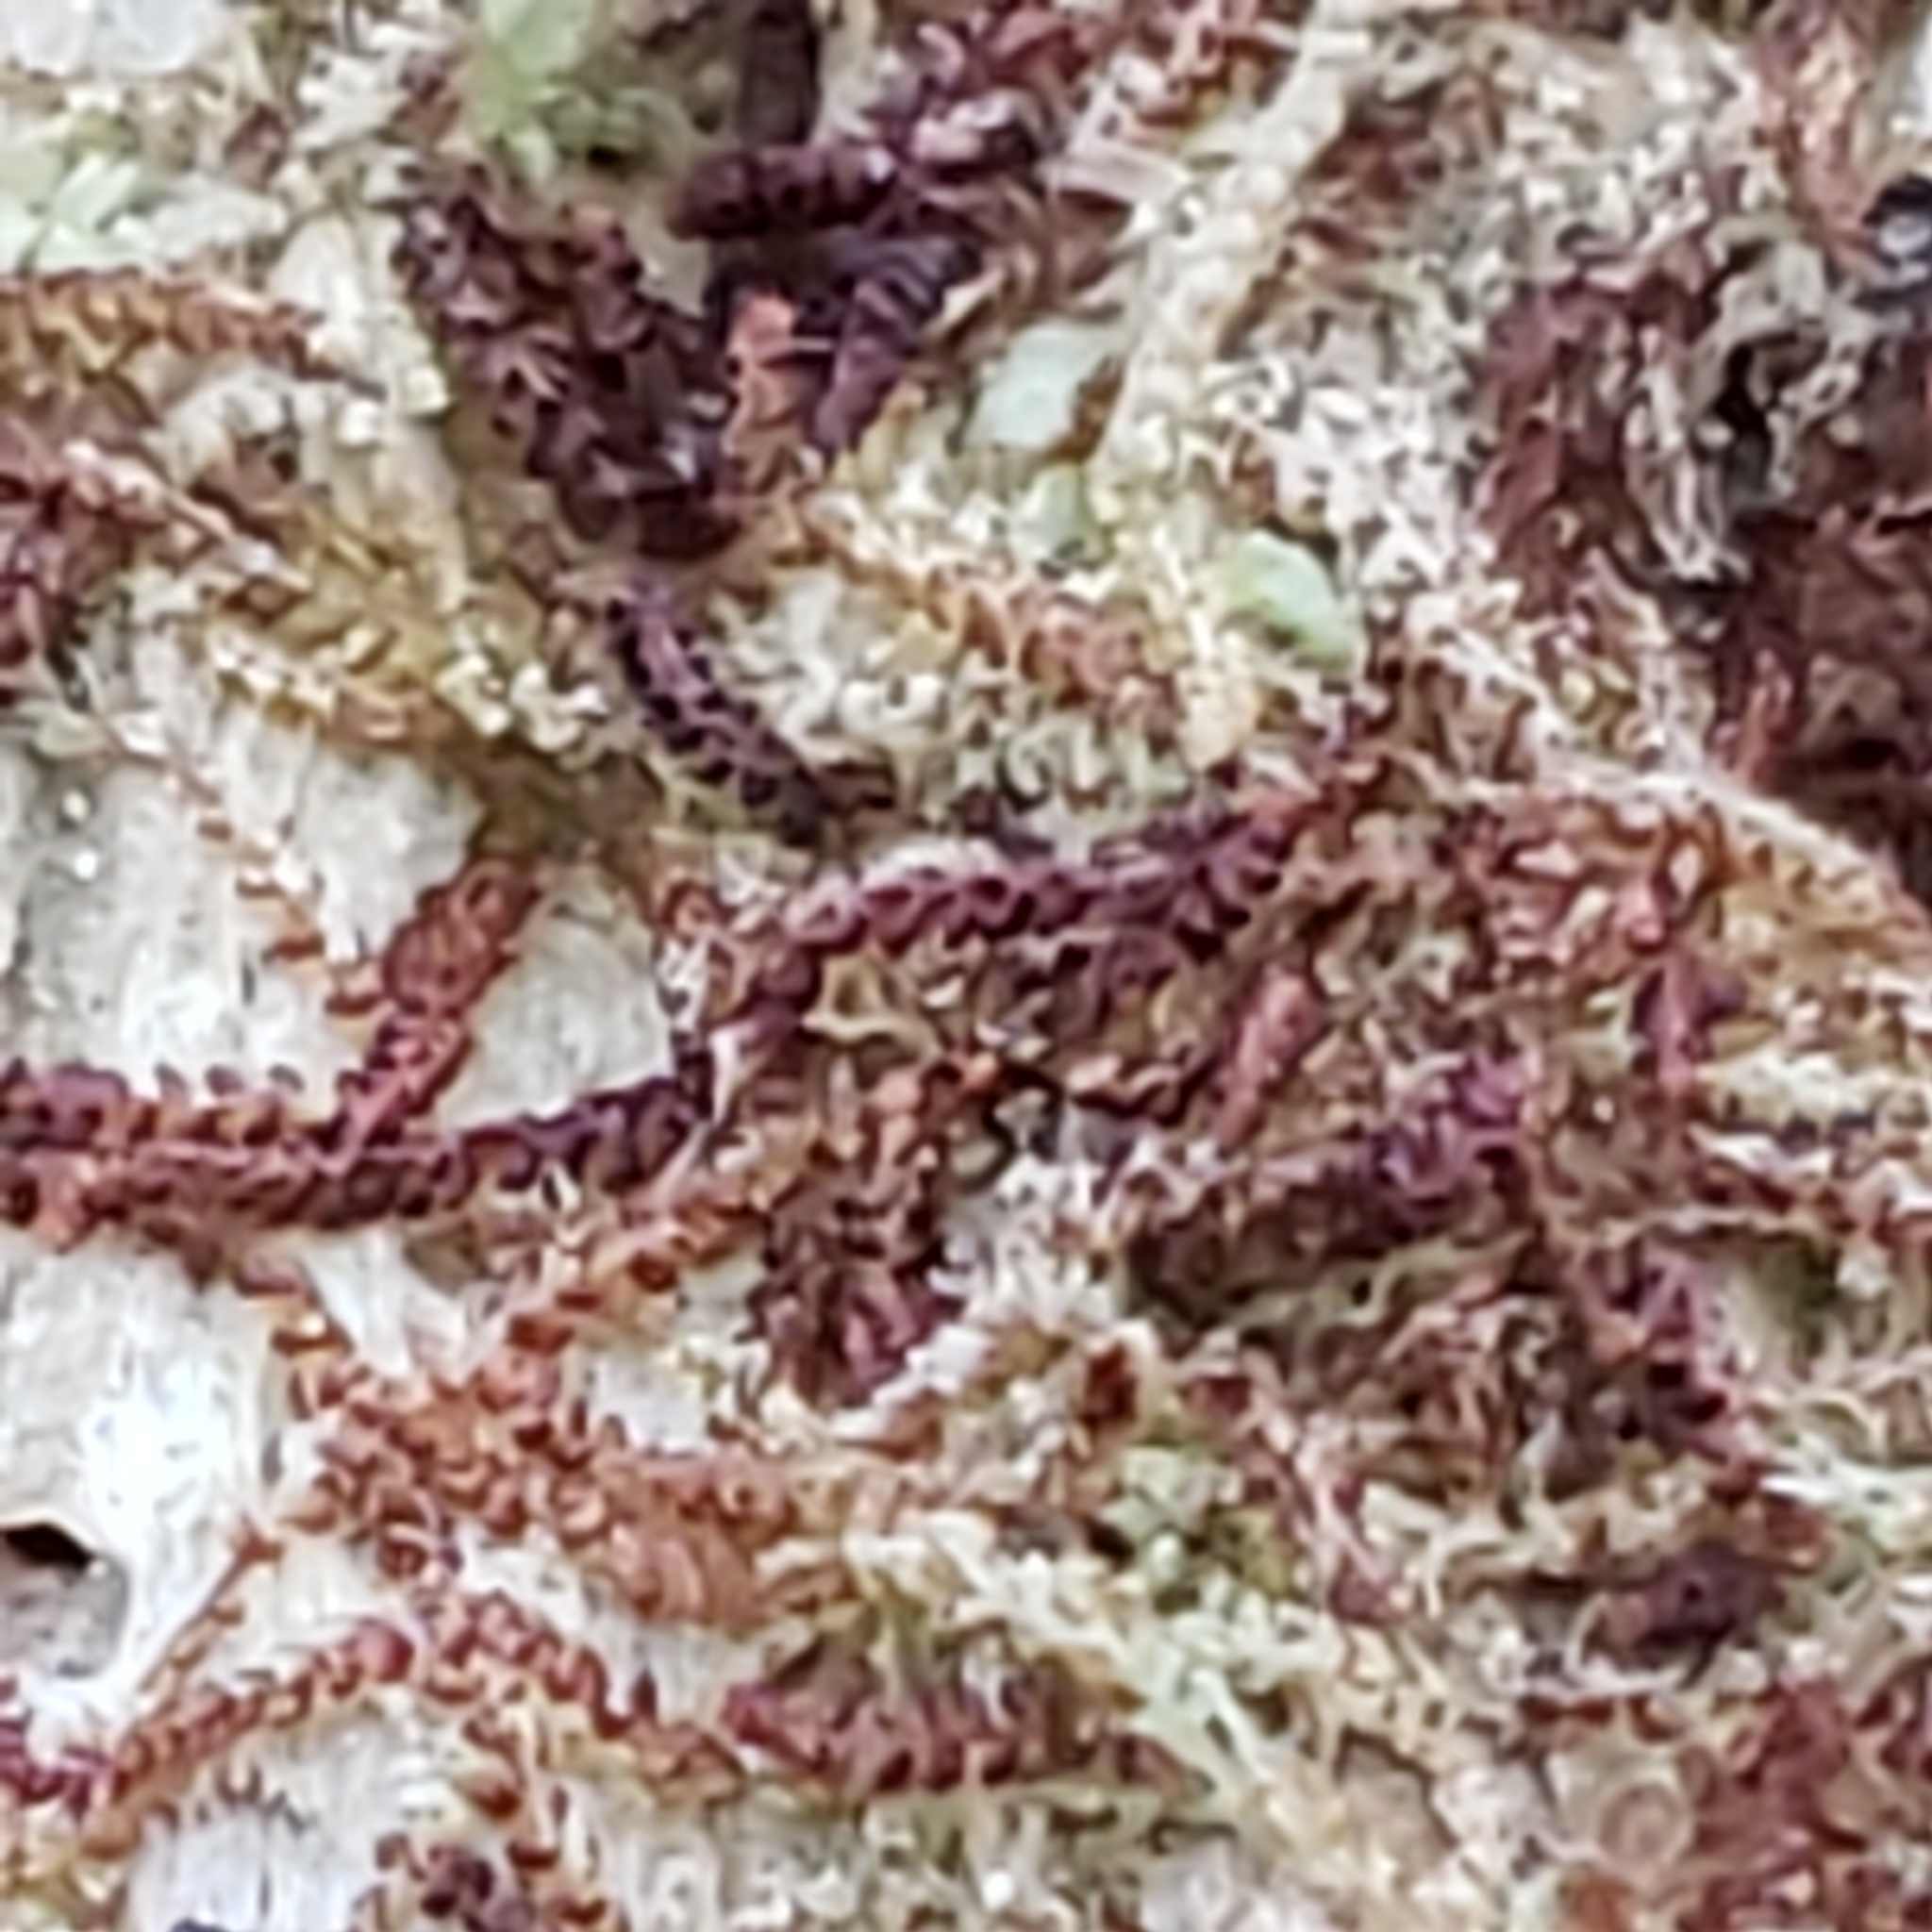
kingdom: Plantae
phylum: Marchantiophyta
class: Jungermanniopsida
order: Jungermanniales
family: Cephaloziaceae
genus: Nowellia
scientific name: Nowellia curvifolia
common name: Wood rustwort
